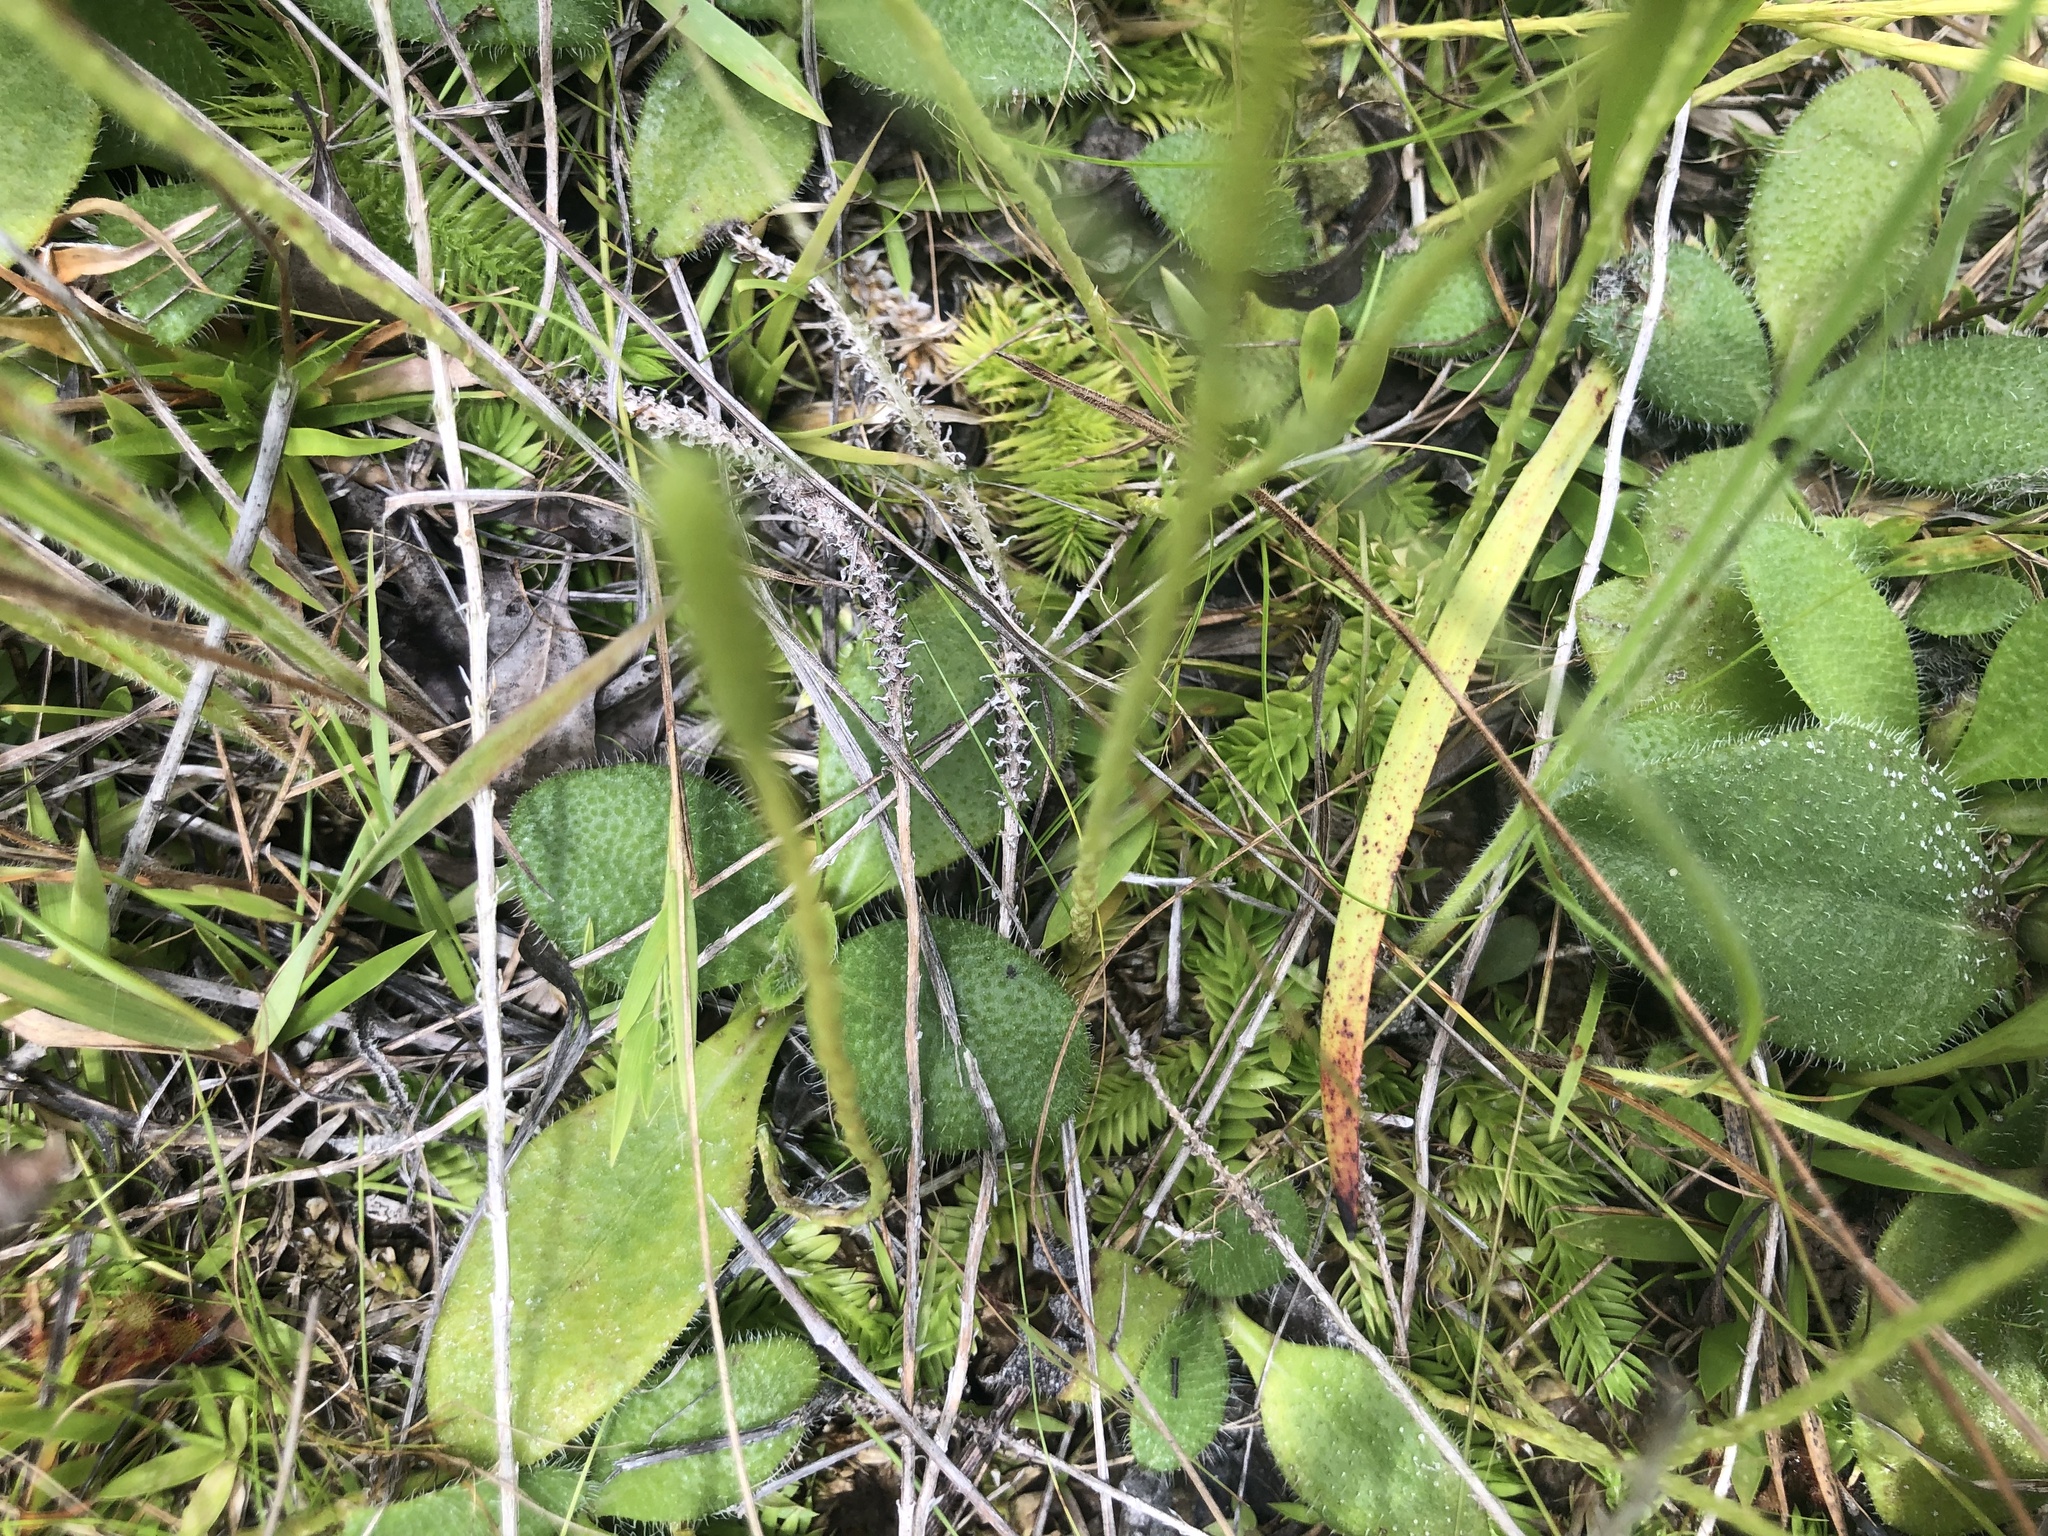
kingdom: Plantae
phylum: Tracheophyta
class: Lycopodiopsida
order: Lycopodiales
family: Lycopodiaceae
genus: Pseudolycopodiella
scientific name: Pseudolycopodiella caroliniana
